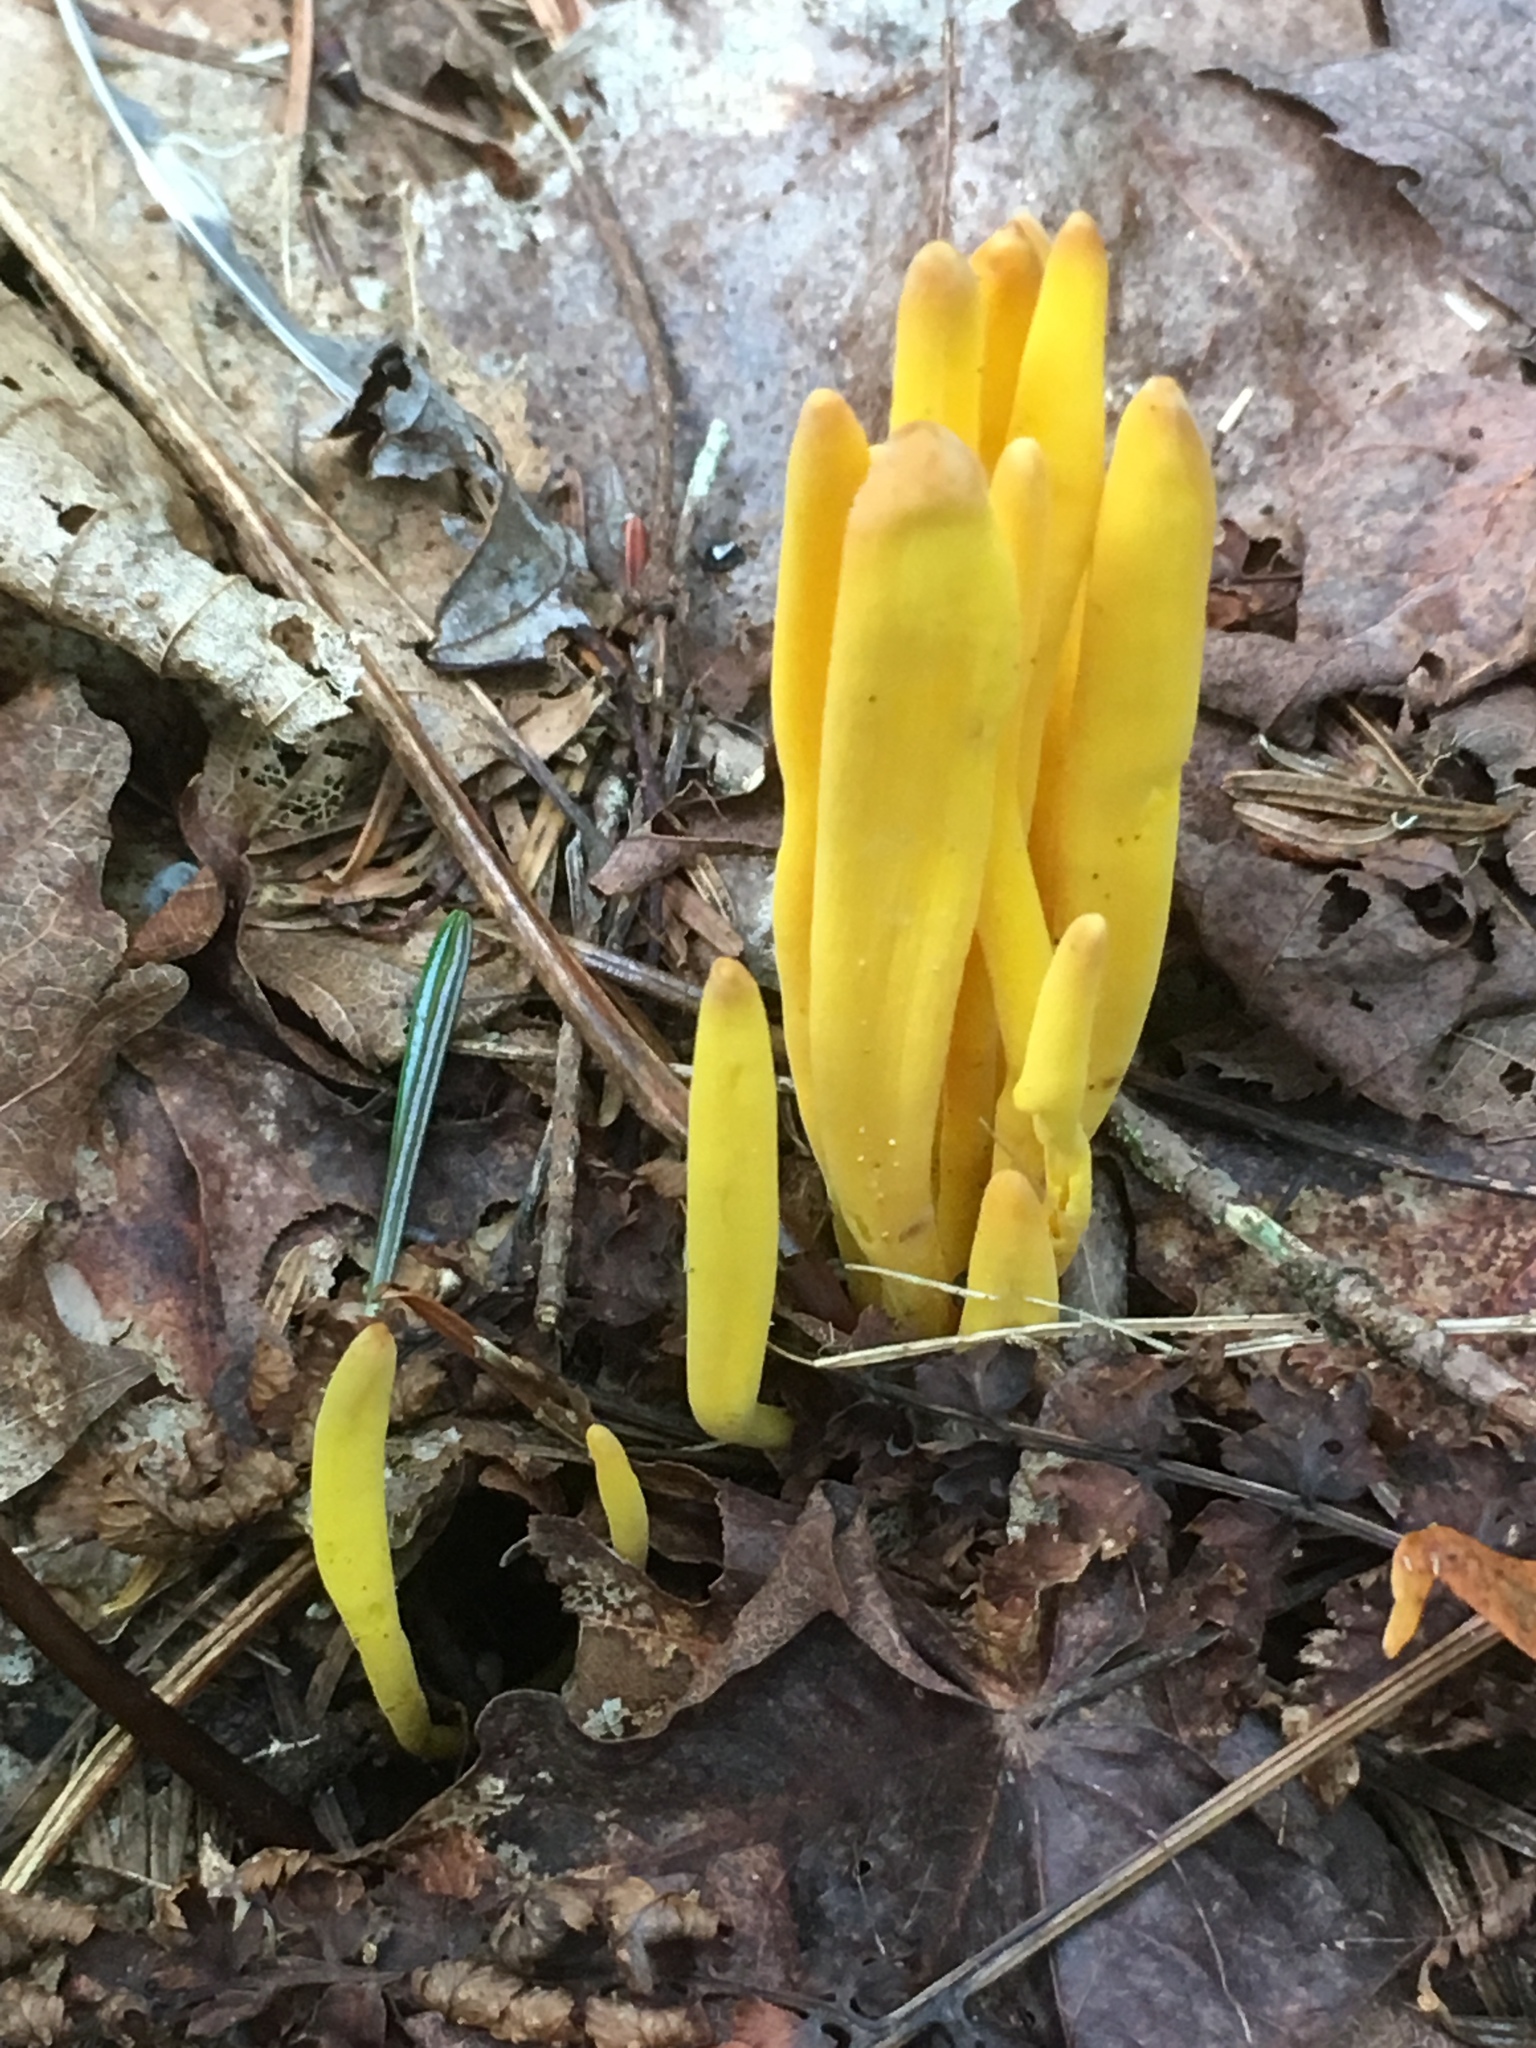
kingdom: Fungi
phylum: Basidiomycota
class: Agaricomycetes
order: Agaricales
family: Clavariaceae
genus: Clavulinopsis
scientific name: Clavulinopsis fusiformis
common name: Golden spindles
